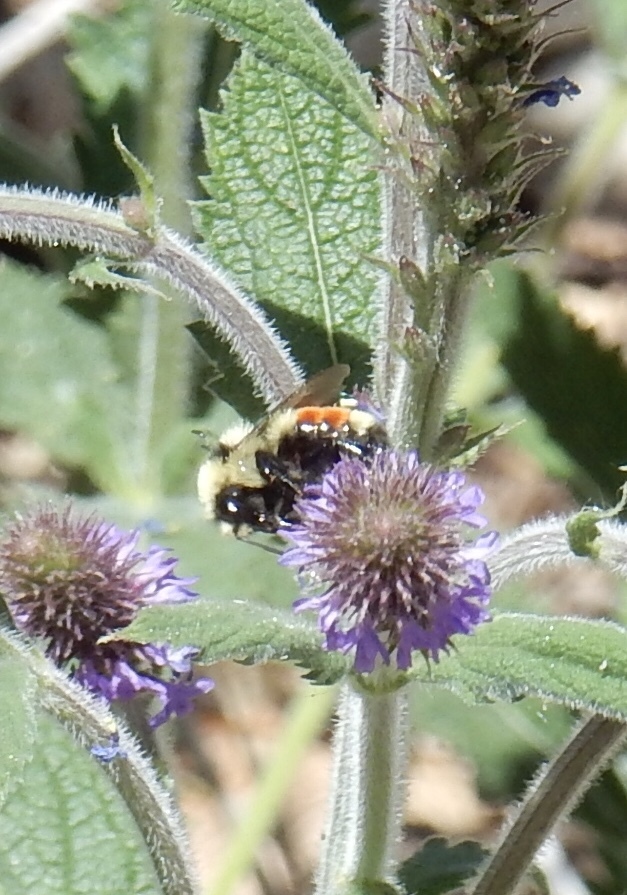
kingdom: Animalia
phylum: Arthropoda
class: Insecta
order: Hymenoptera
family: Apidae
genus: Bombus
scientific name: Bombus huntii
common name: Hunt bumble bee
